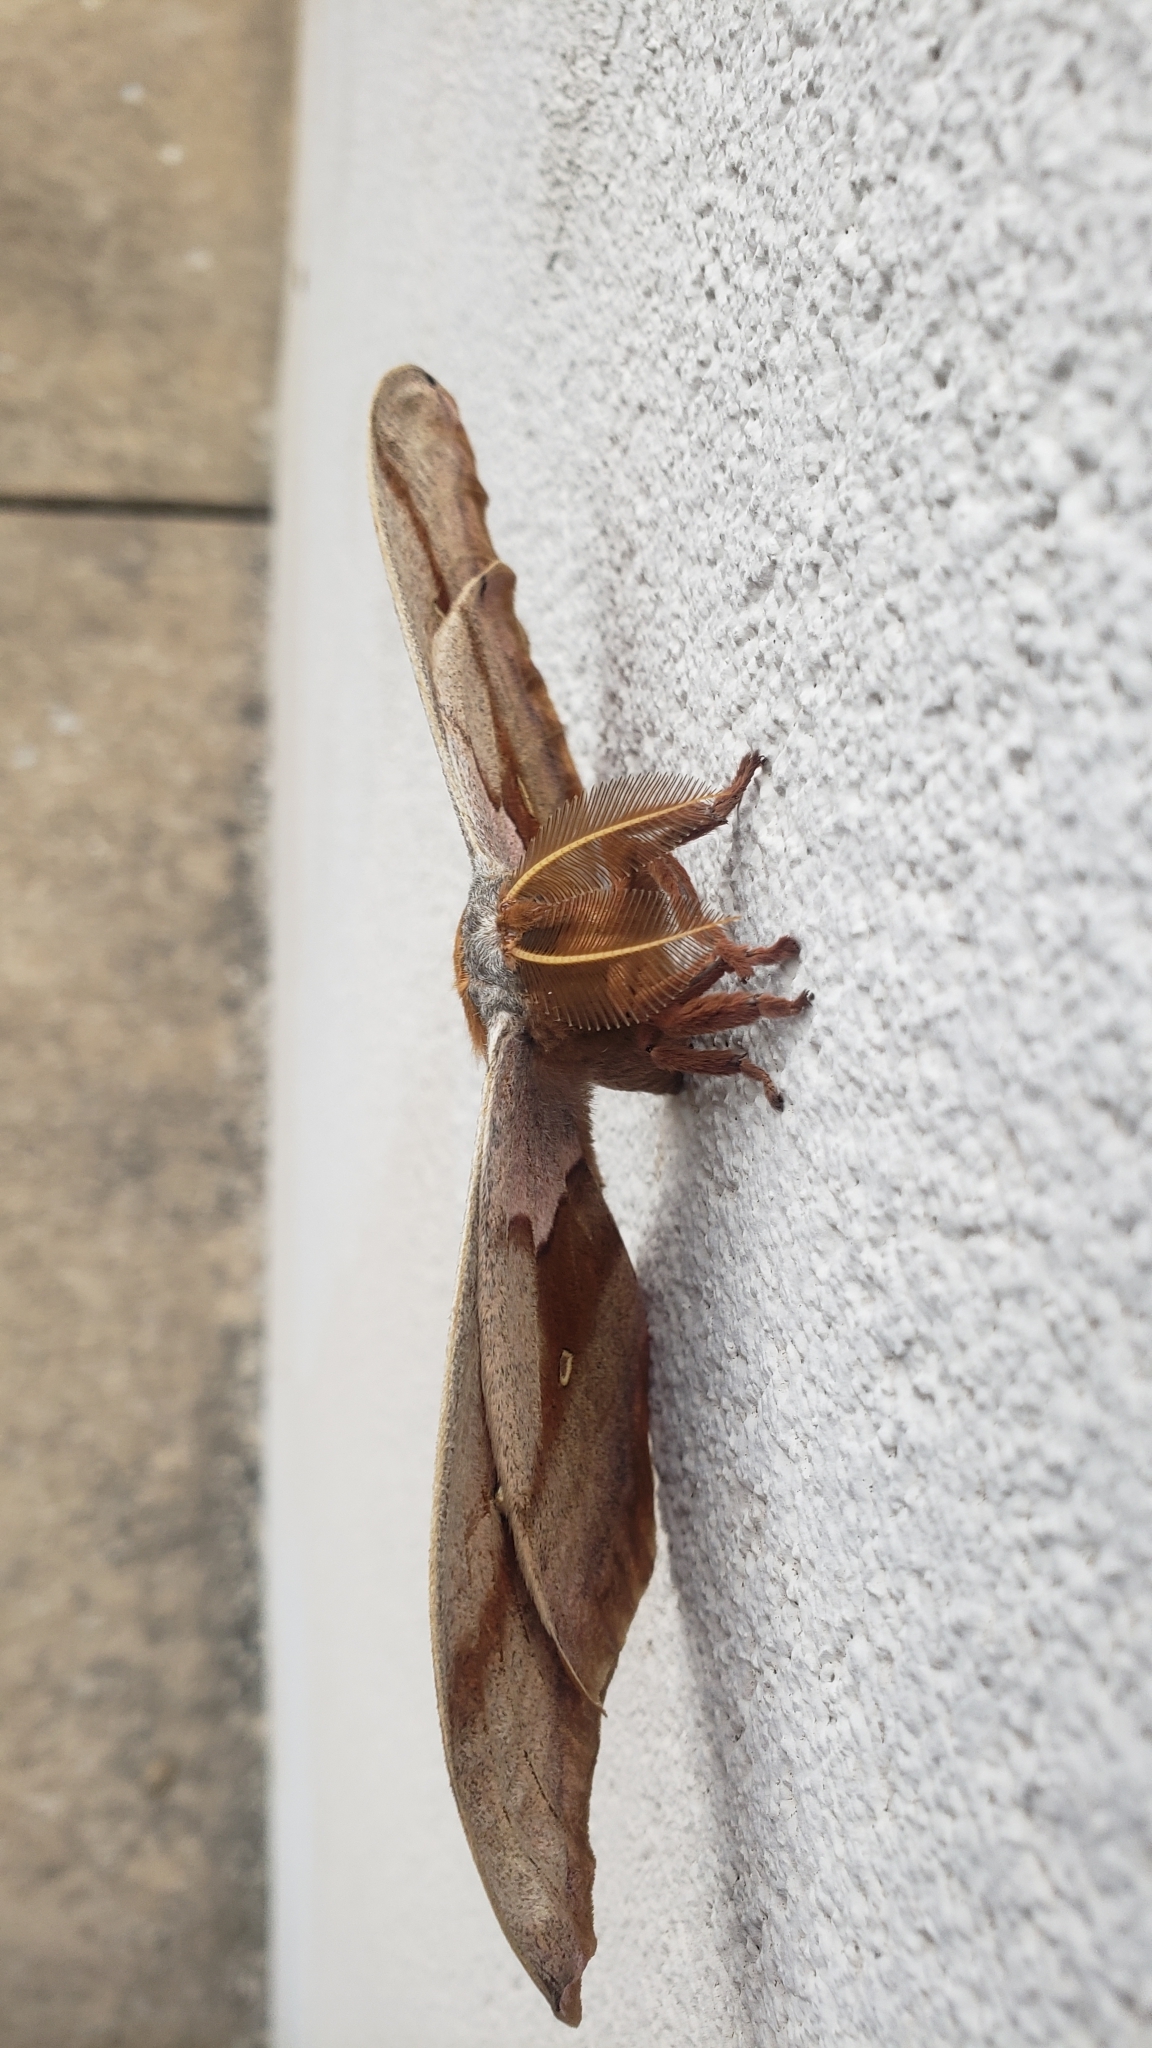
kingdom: Animalia
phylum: Arthropoda
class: Insecta
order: Lepidoptera
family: Saturniidae
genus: Antheraea
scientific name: Antheraea polyphemus
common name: Polyphemus moth
